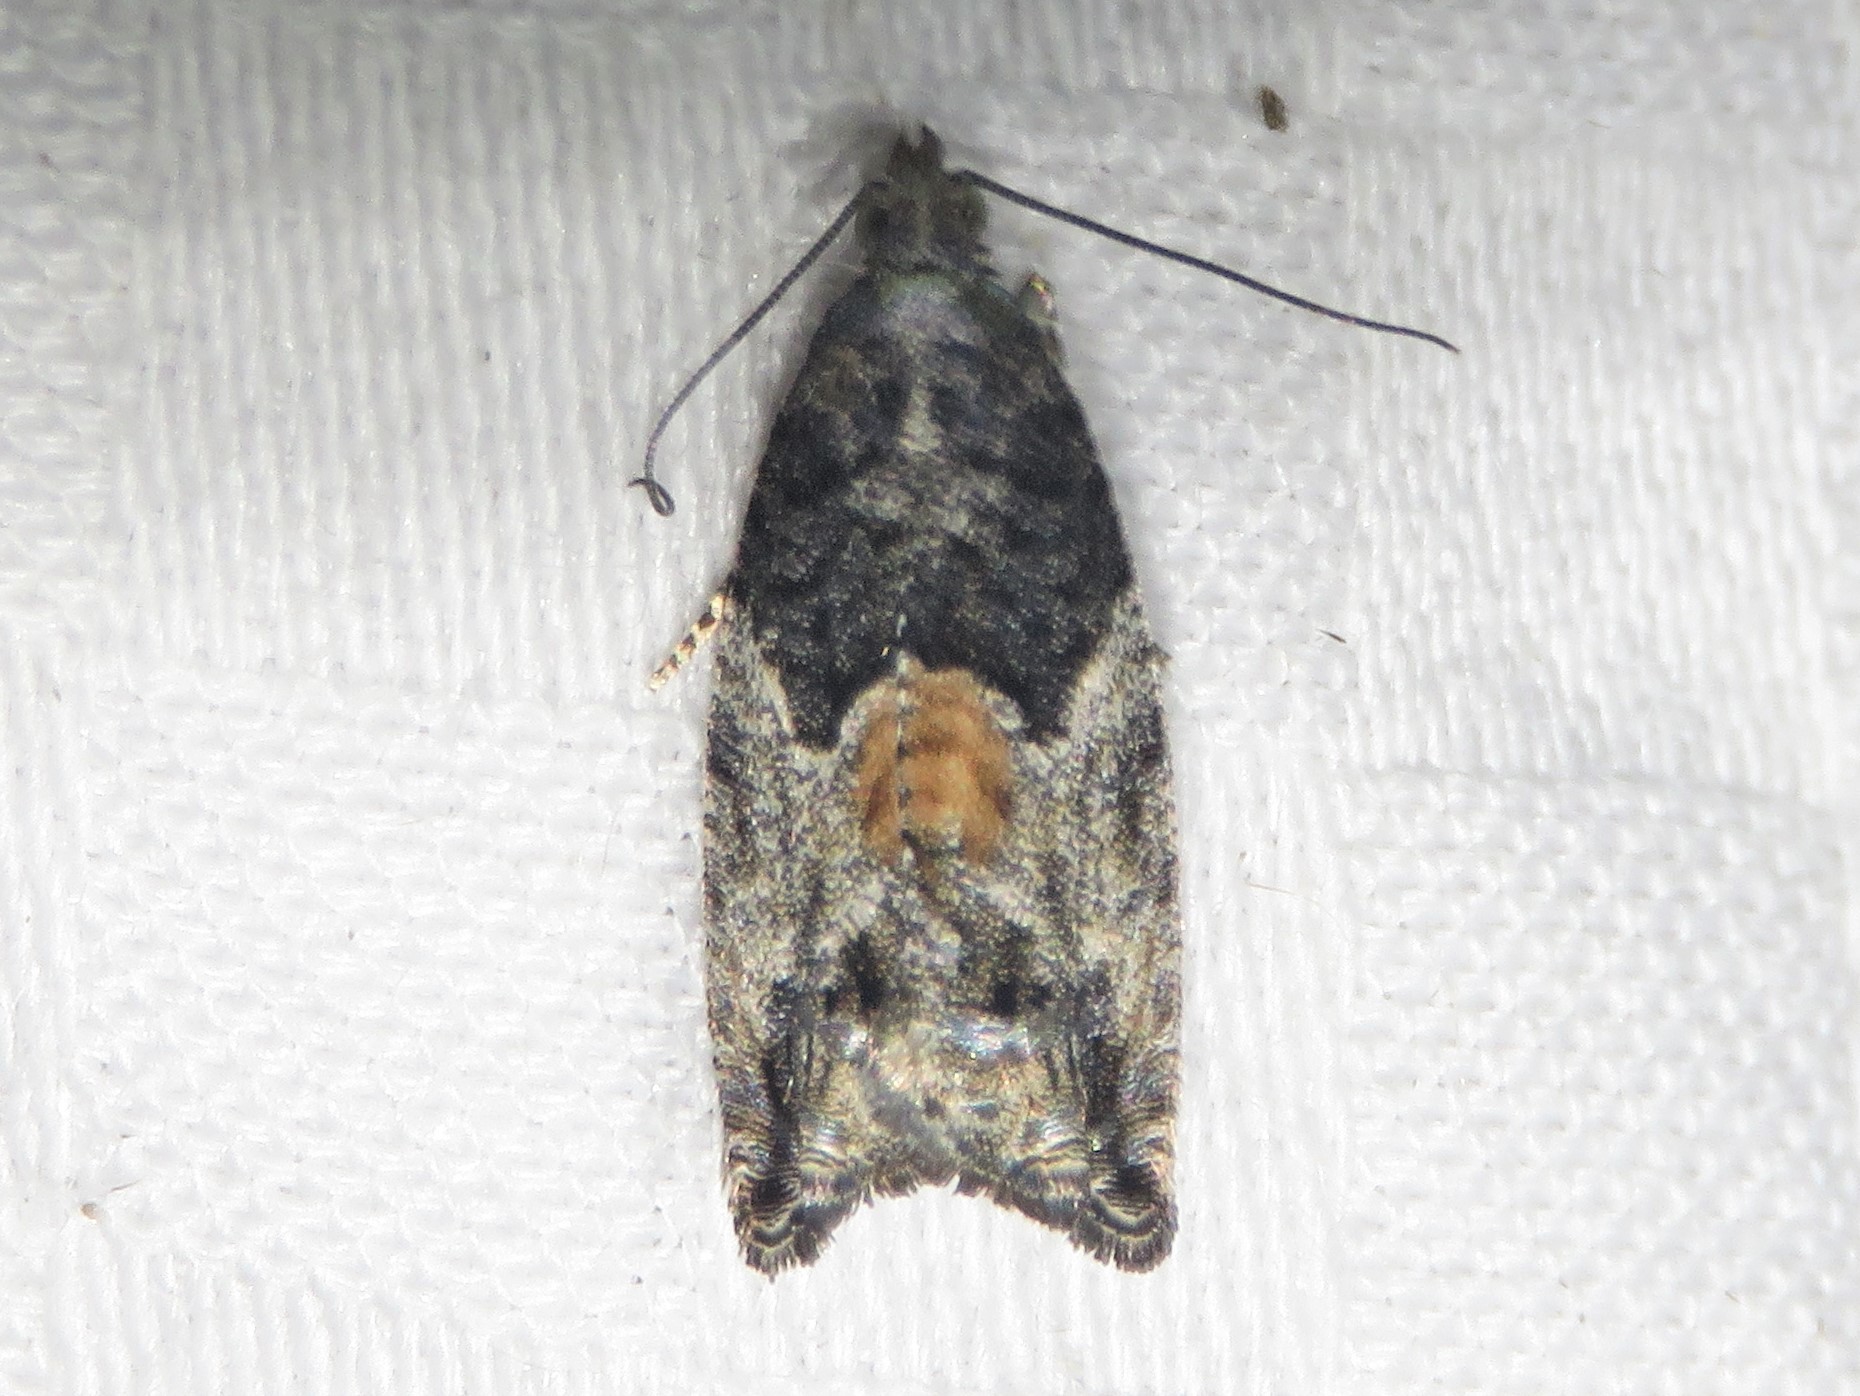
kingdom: Animalia
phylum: Arthropoda
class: Insecta
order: Lepidoptera
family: Tortricidae
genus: Epinotia
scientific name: Epinotia nisella
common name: Grey poplar bell
